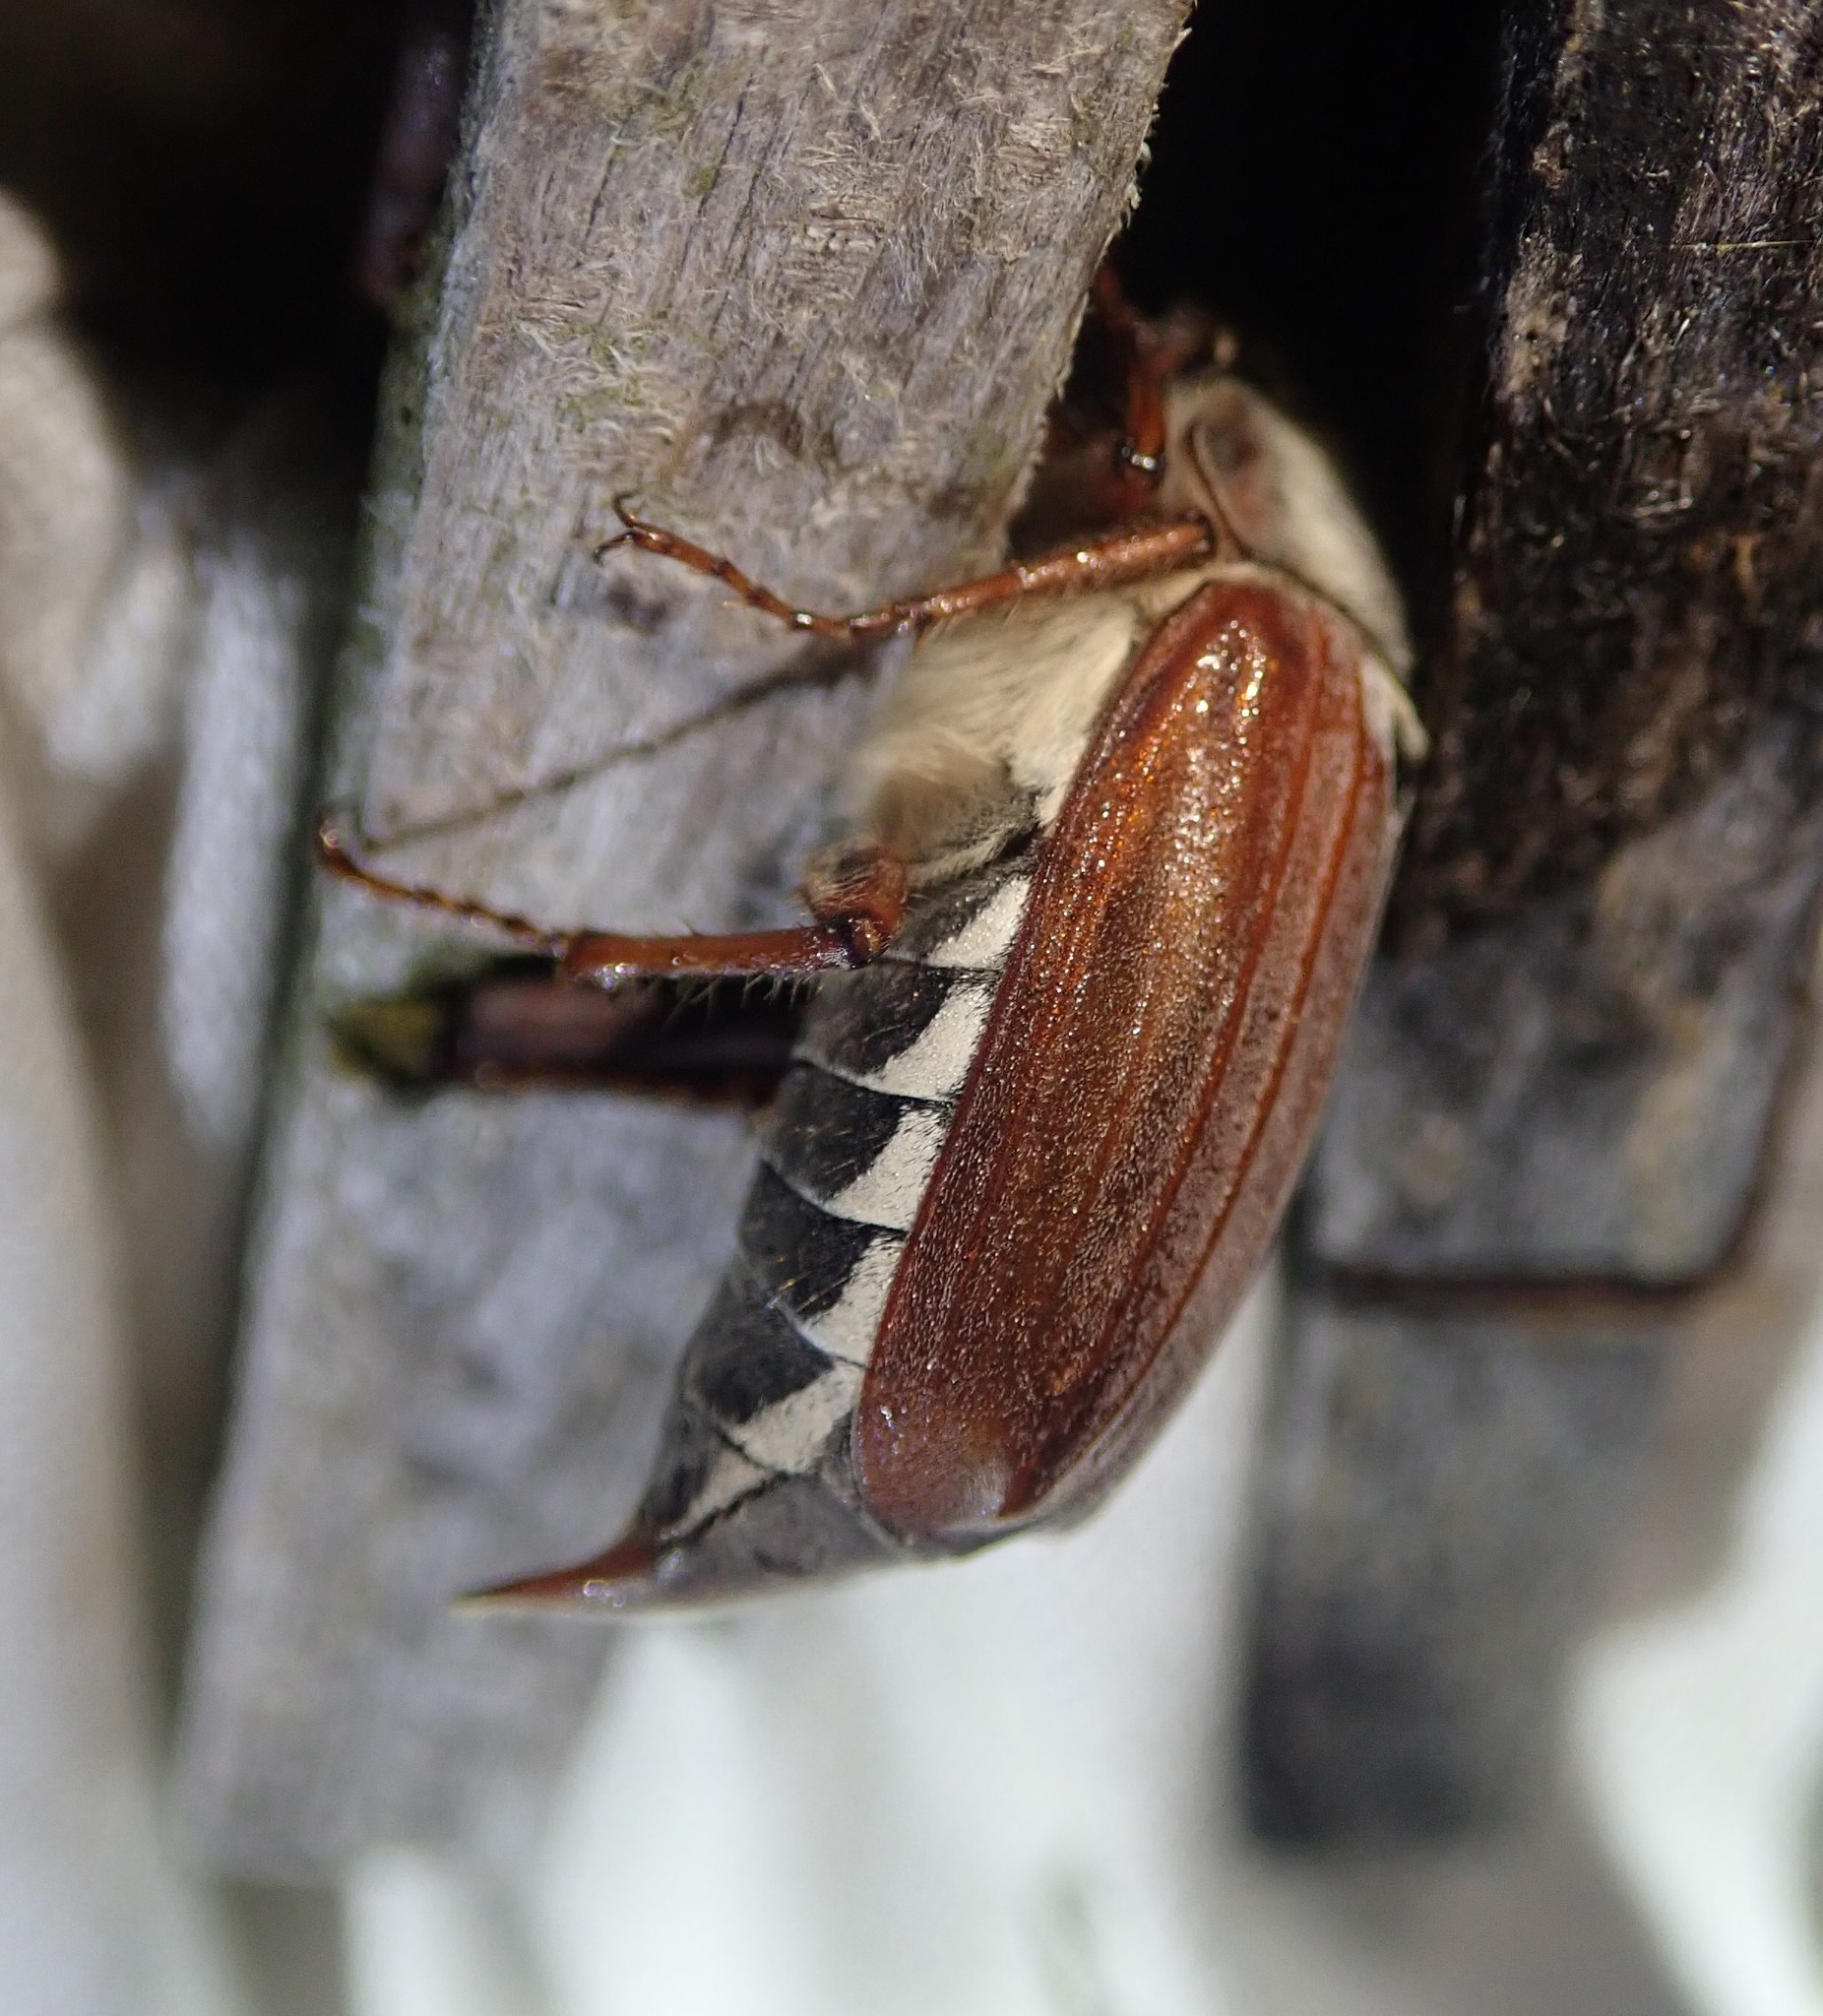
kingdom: Animalia
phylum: Arthropoda
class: Insecta
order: Coleoptera
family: Scarabaeidae
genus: Melolontha
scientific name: Melolontha melolontha
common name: Cockchafer maybeetle
